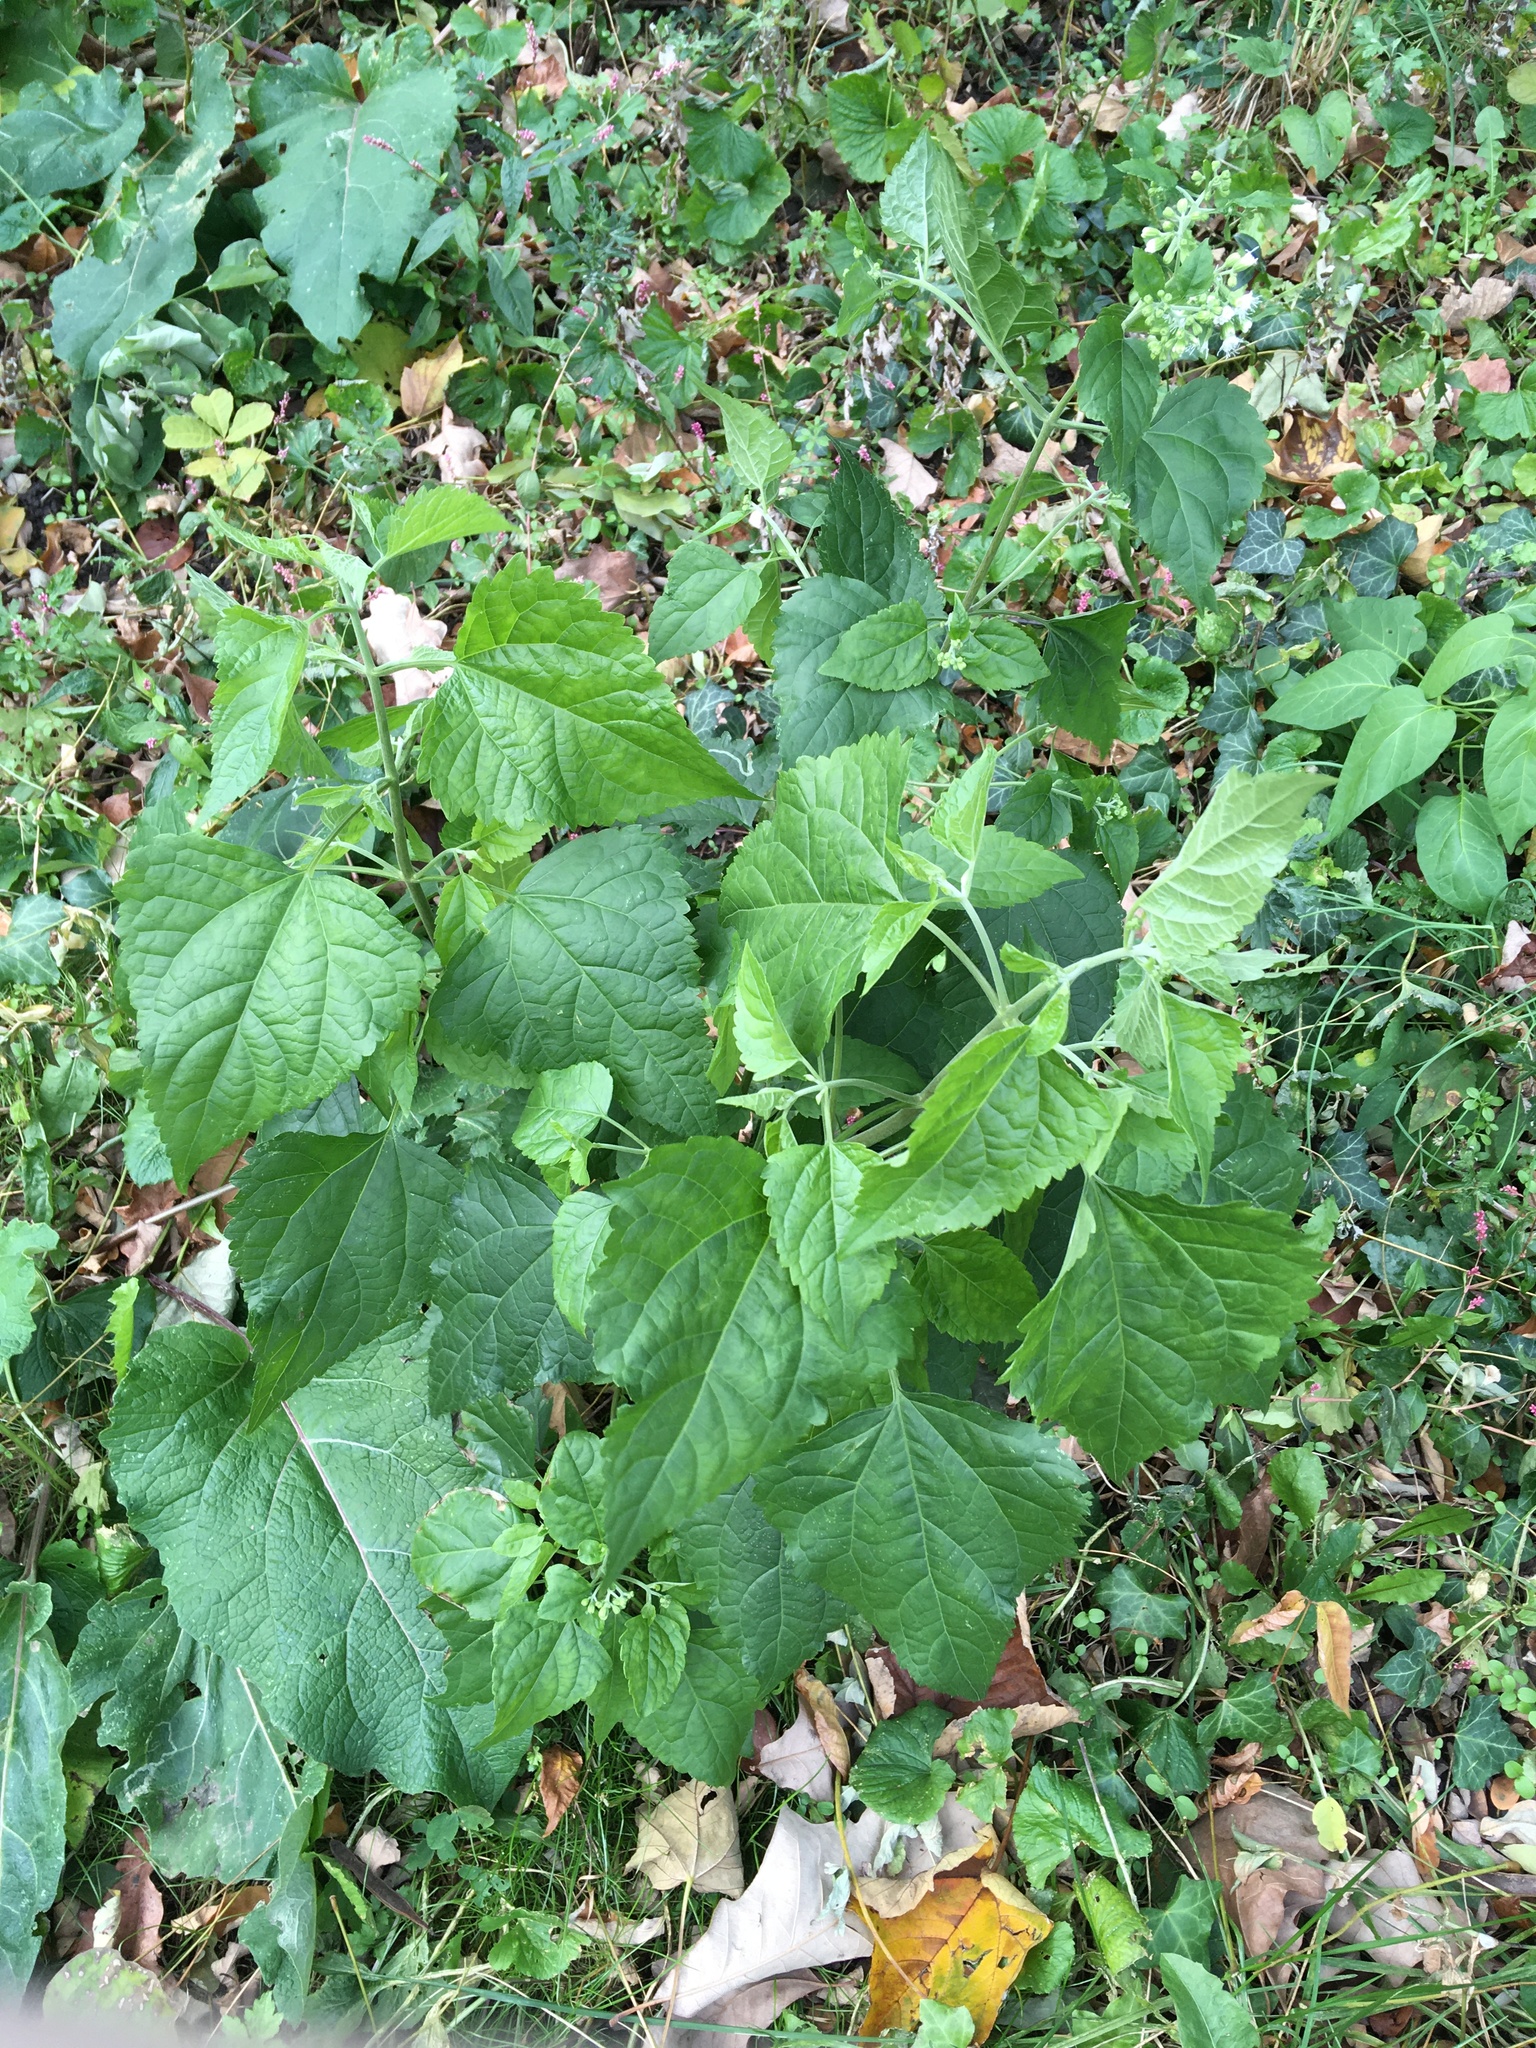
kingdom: Plantae
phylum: Tracheophyta
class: Magnoliopsida
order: Asterales
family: Asteraceae
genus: Ageratina
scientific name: Ageratina altissima
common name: White snakeroot
